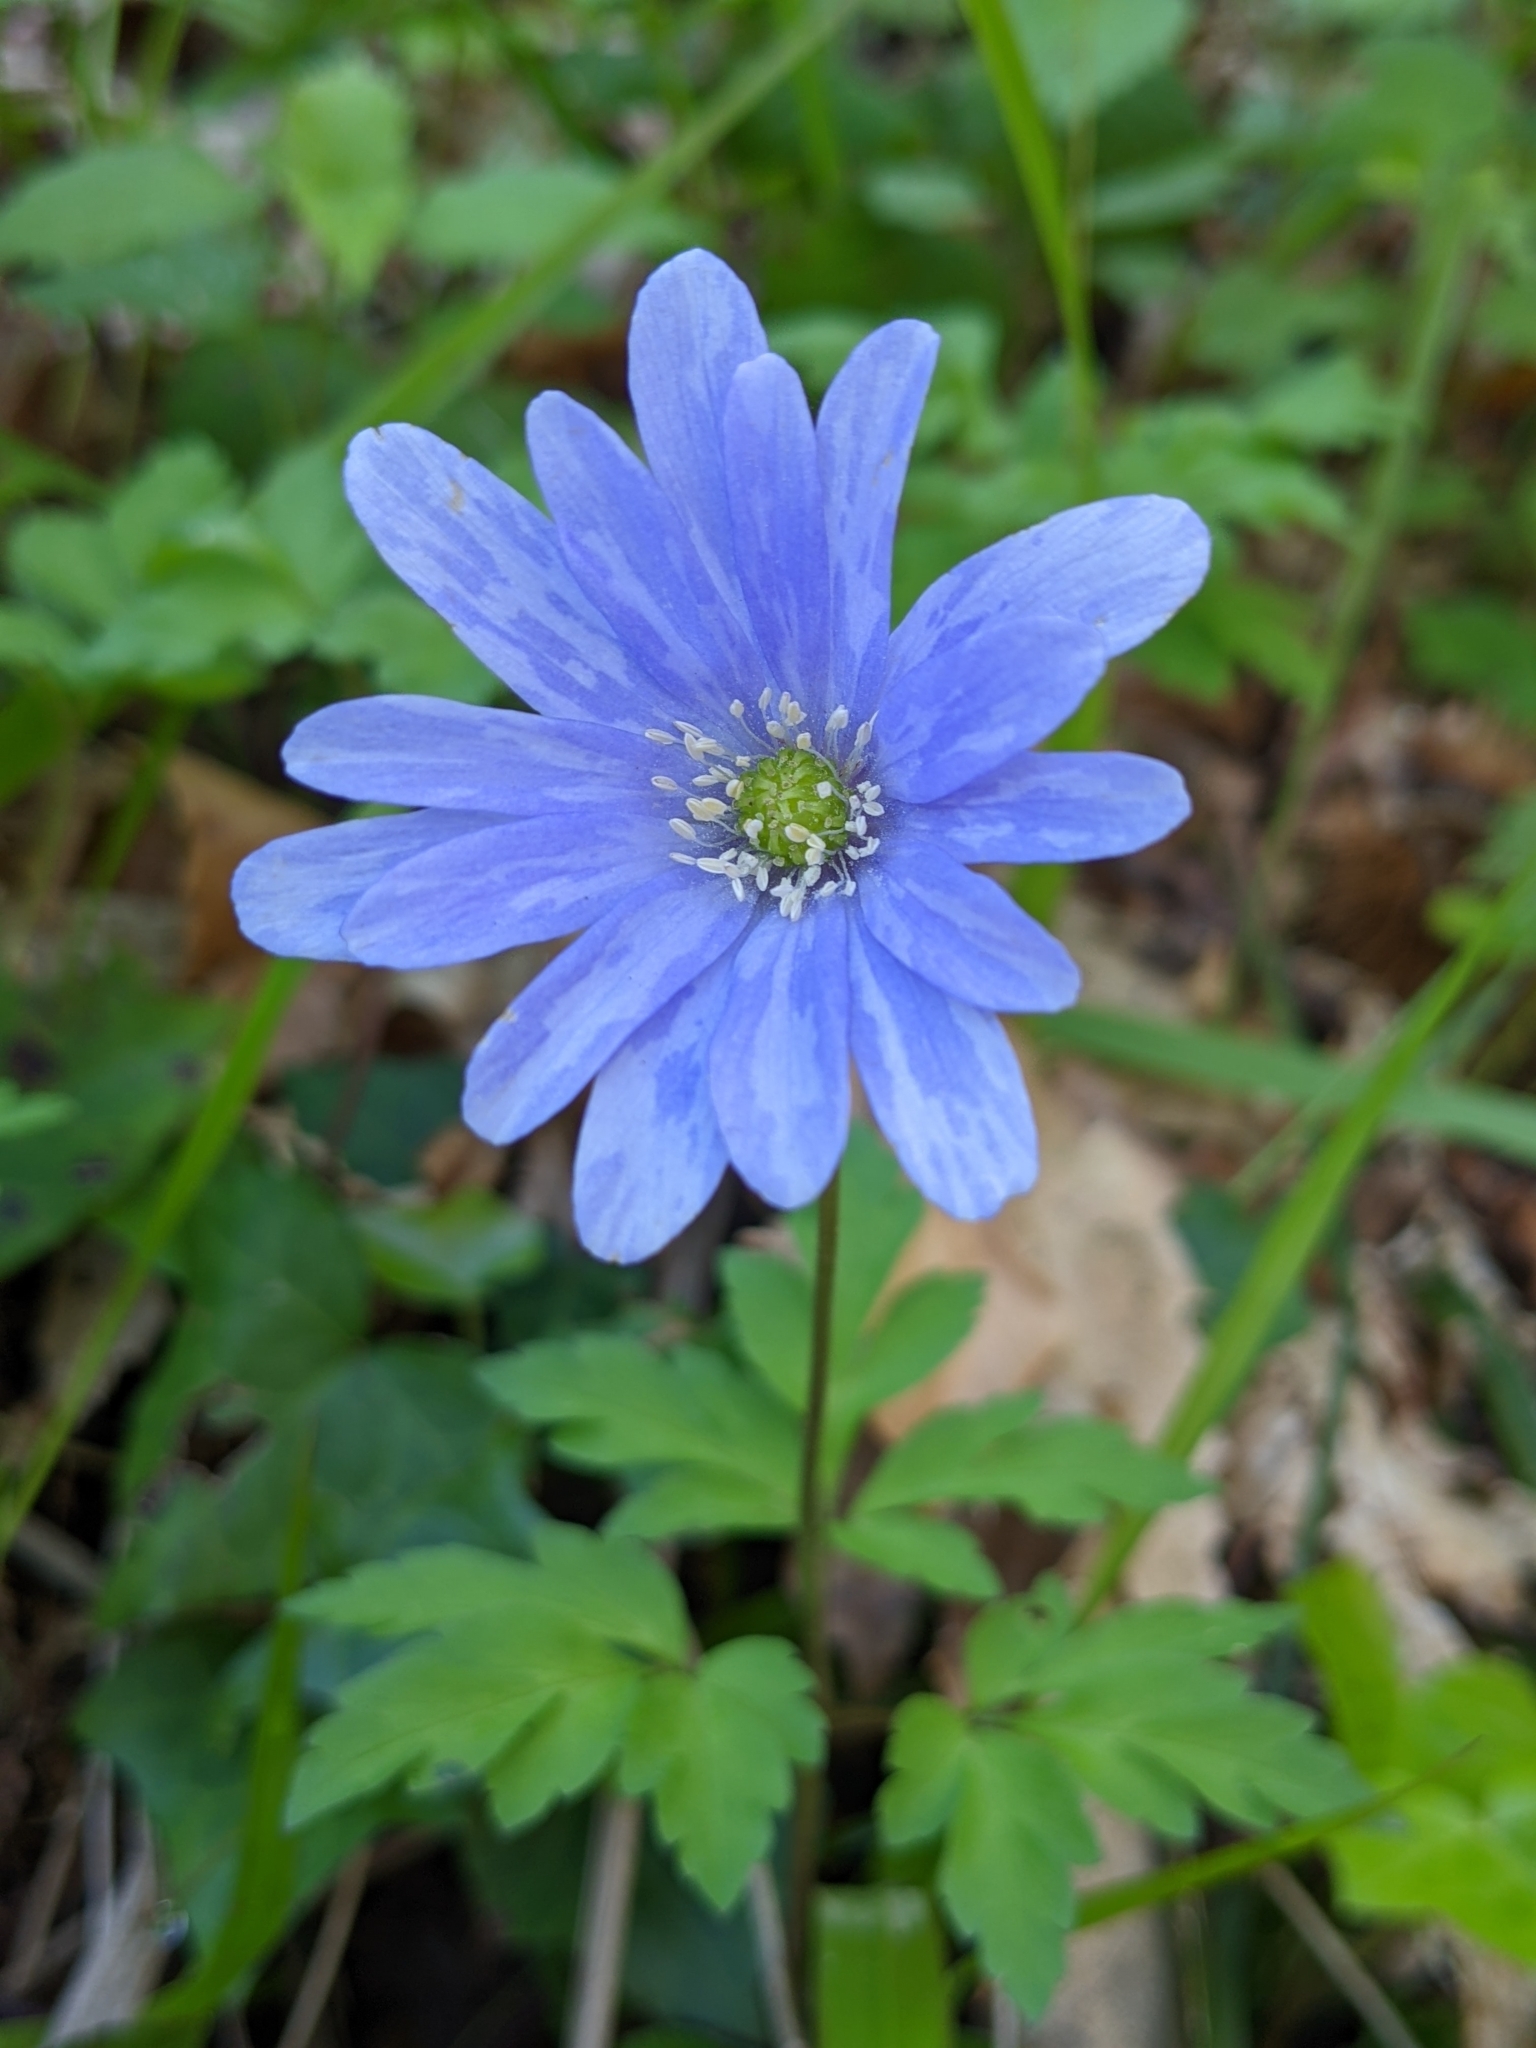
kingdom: Plantae
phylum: Tracheophyta
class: Magnoliopsida
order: Ranunculales
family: Ranunculaceae
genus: Anemone
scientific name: Anemone apennina
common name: Blue anemone
